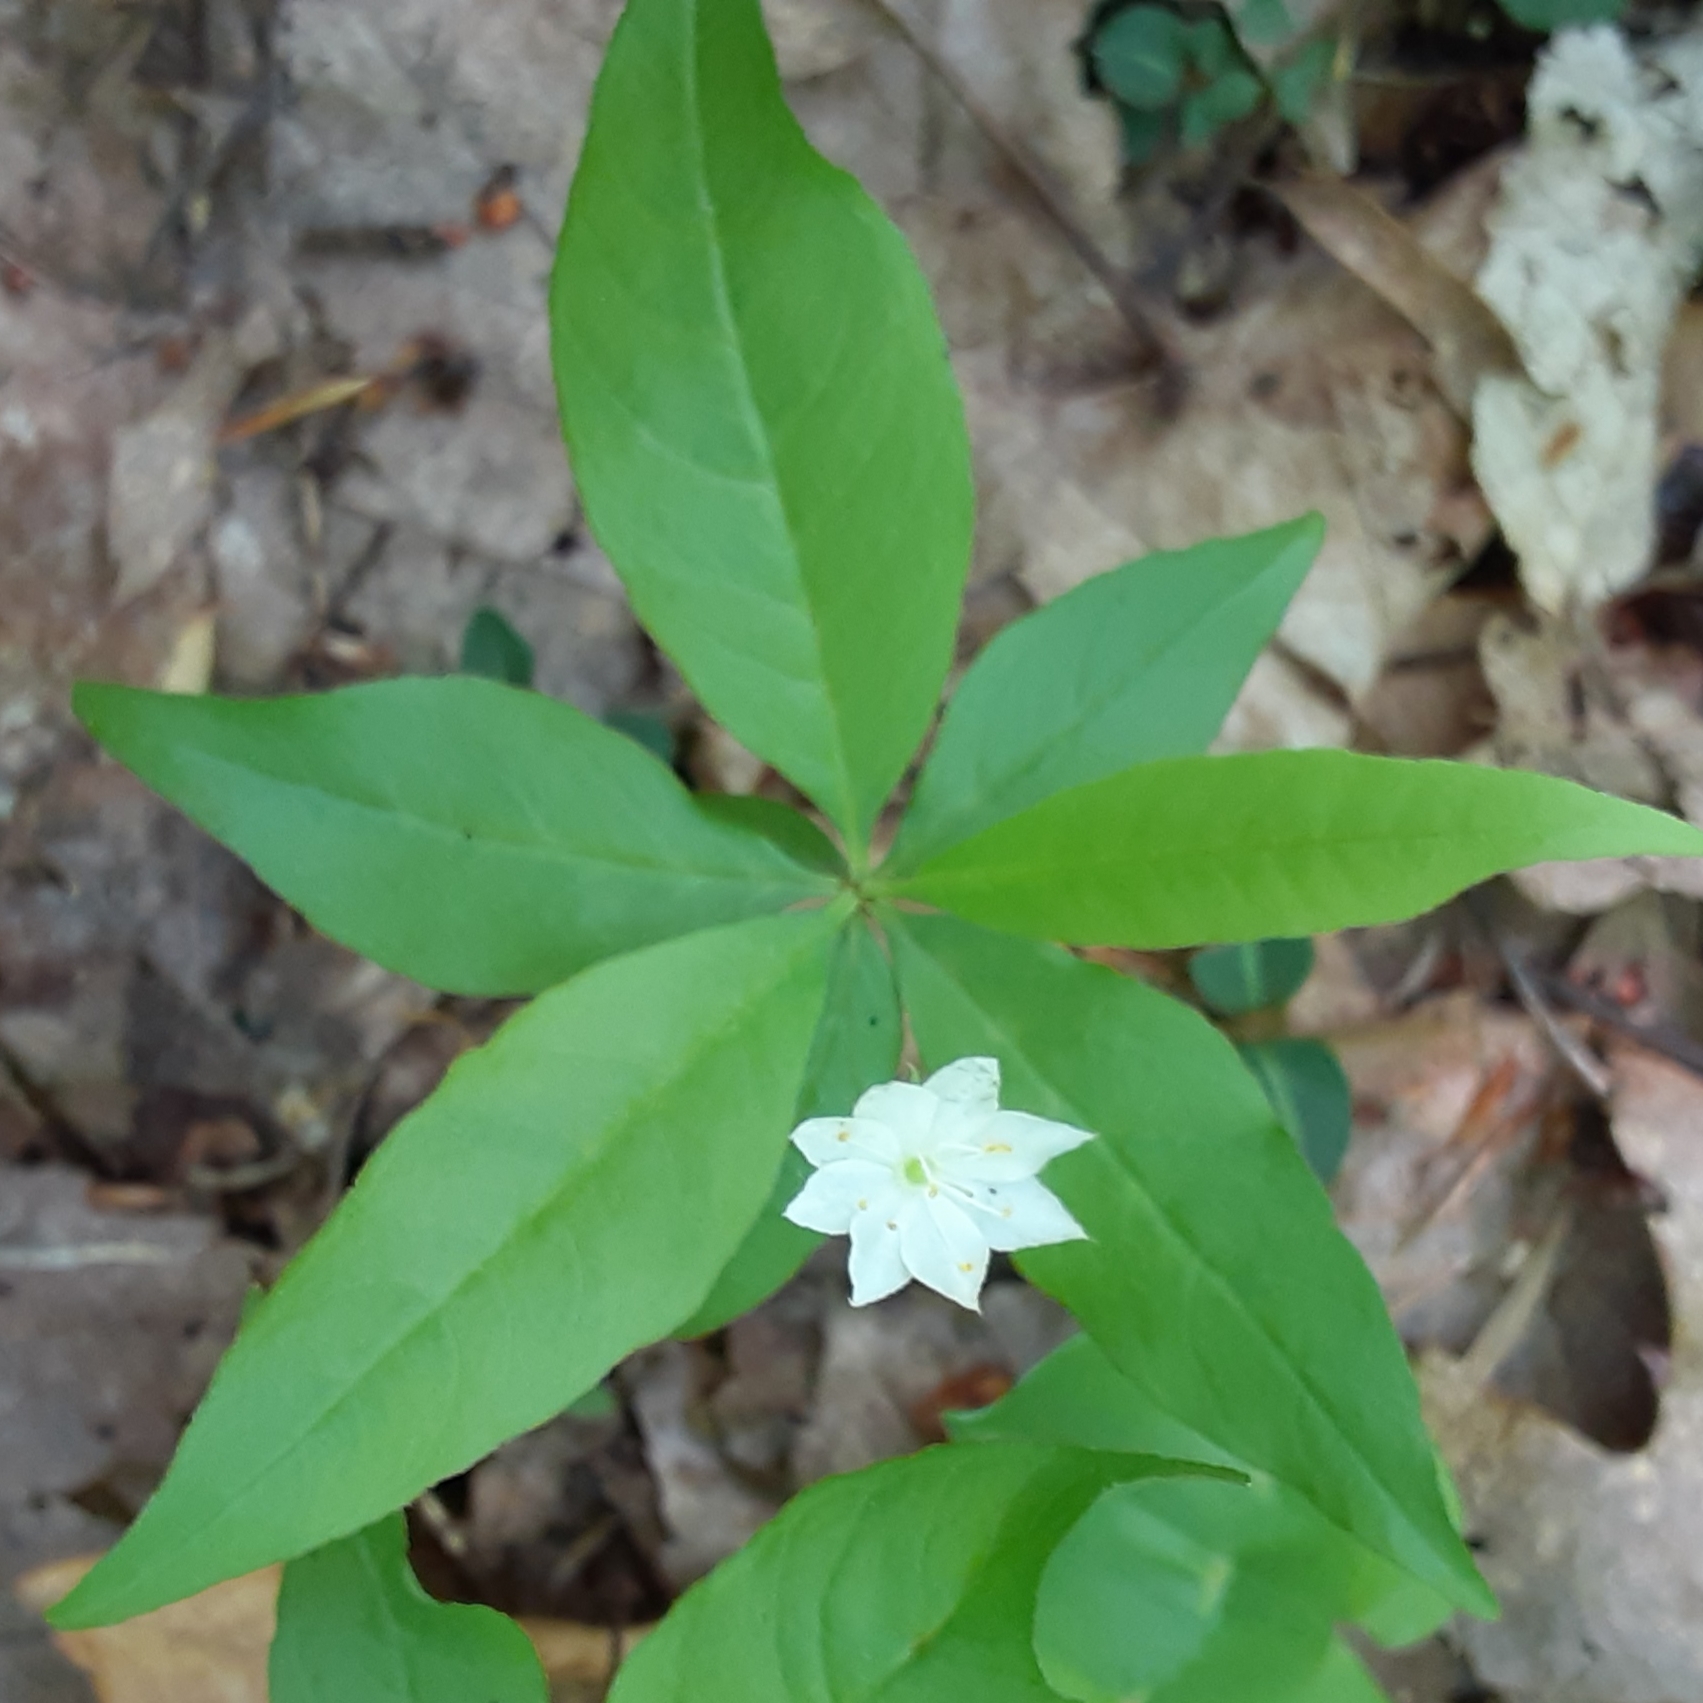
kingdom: Plantae
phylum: Tracheophyta
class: Magnoliopsida
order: Ericales
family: Primulaceae
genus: Lysimachia
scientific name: Lysimachia borealis
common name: American starflower
